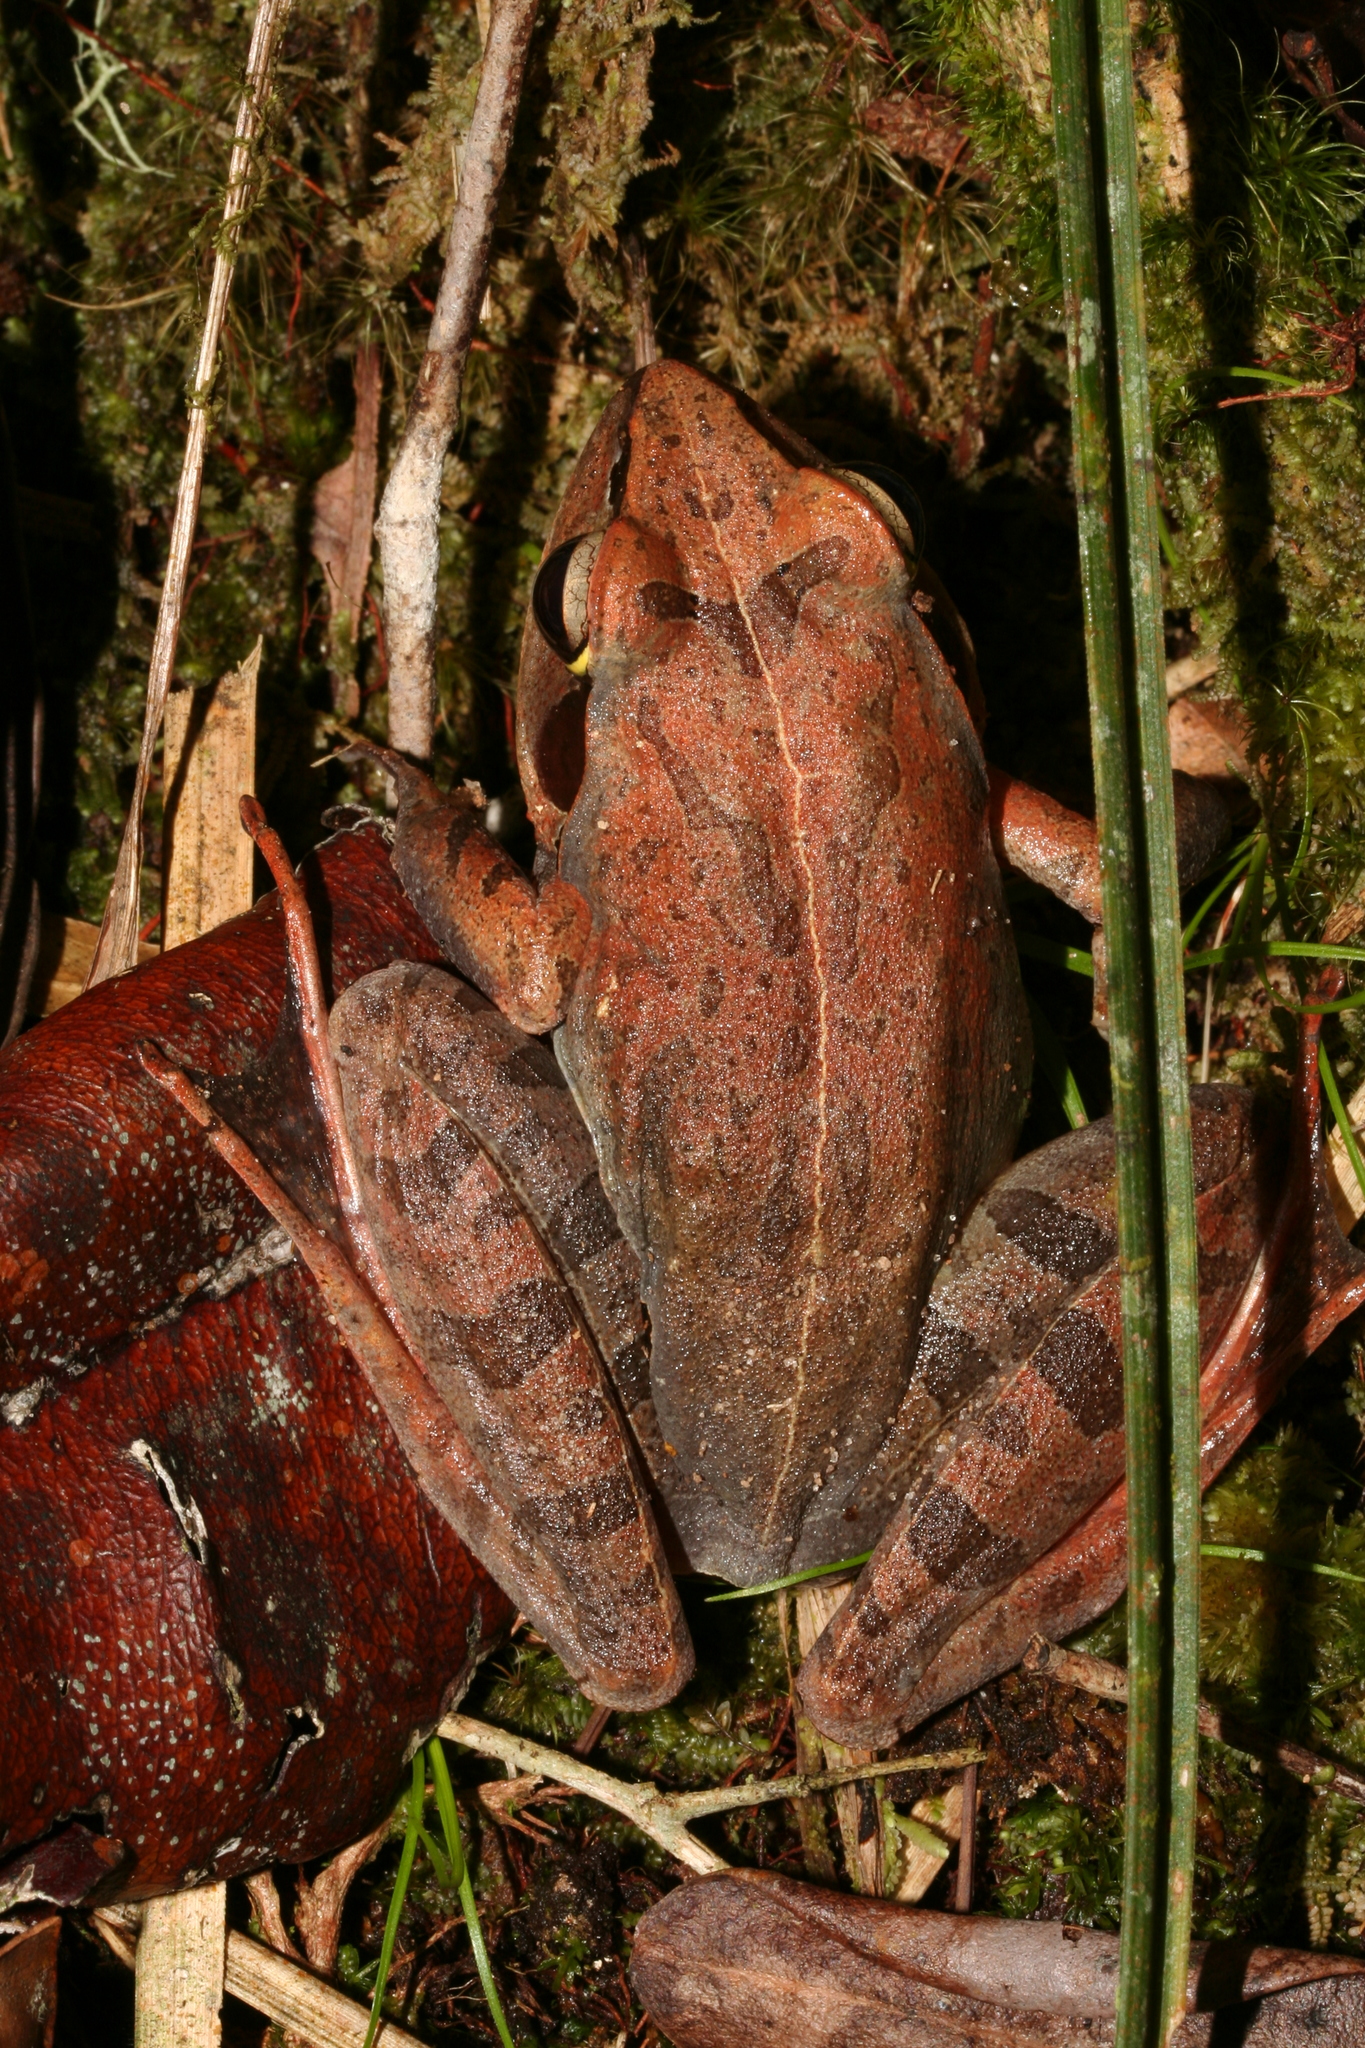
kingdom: Animalia
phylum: Chordata
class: Amphibia
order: Anura
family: Mantellidae
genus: Aglyptodactylus
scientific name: Aglyptodactylus madagascariensis
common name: Madagascar jumping frog
